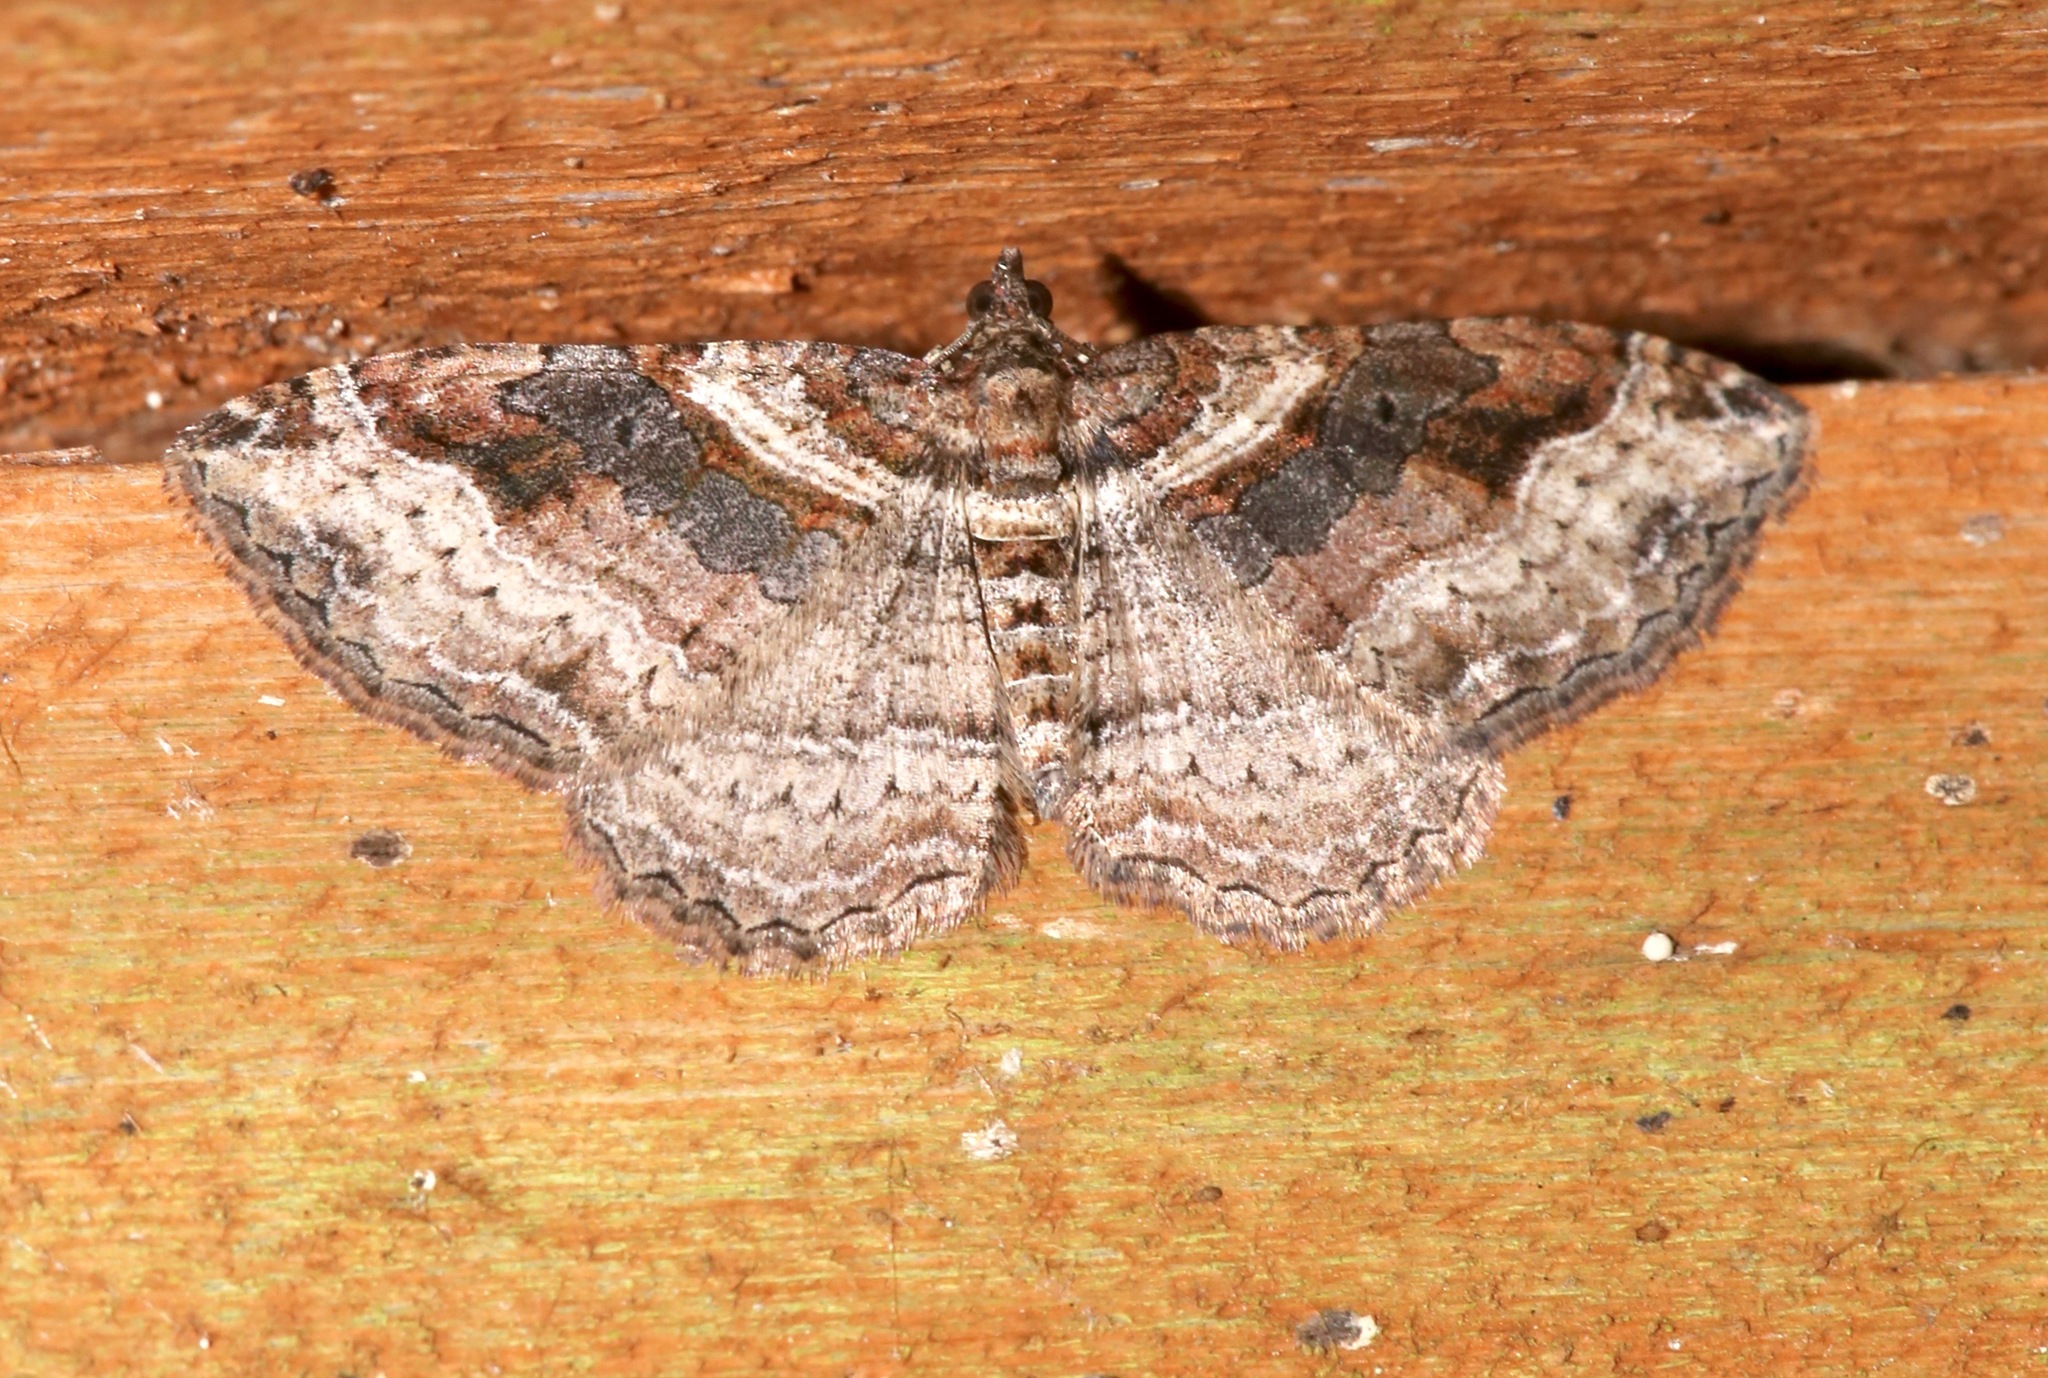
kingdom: Animalia
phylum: Arthropoda
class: Insecta
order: Lepidoptera
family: Geometridae
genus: Costaconvexa
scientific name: Costaconvexa centrostrigaria
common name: Bent-line carpet
